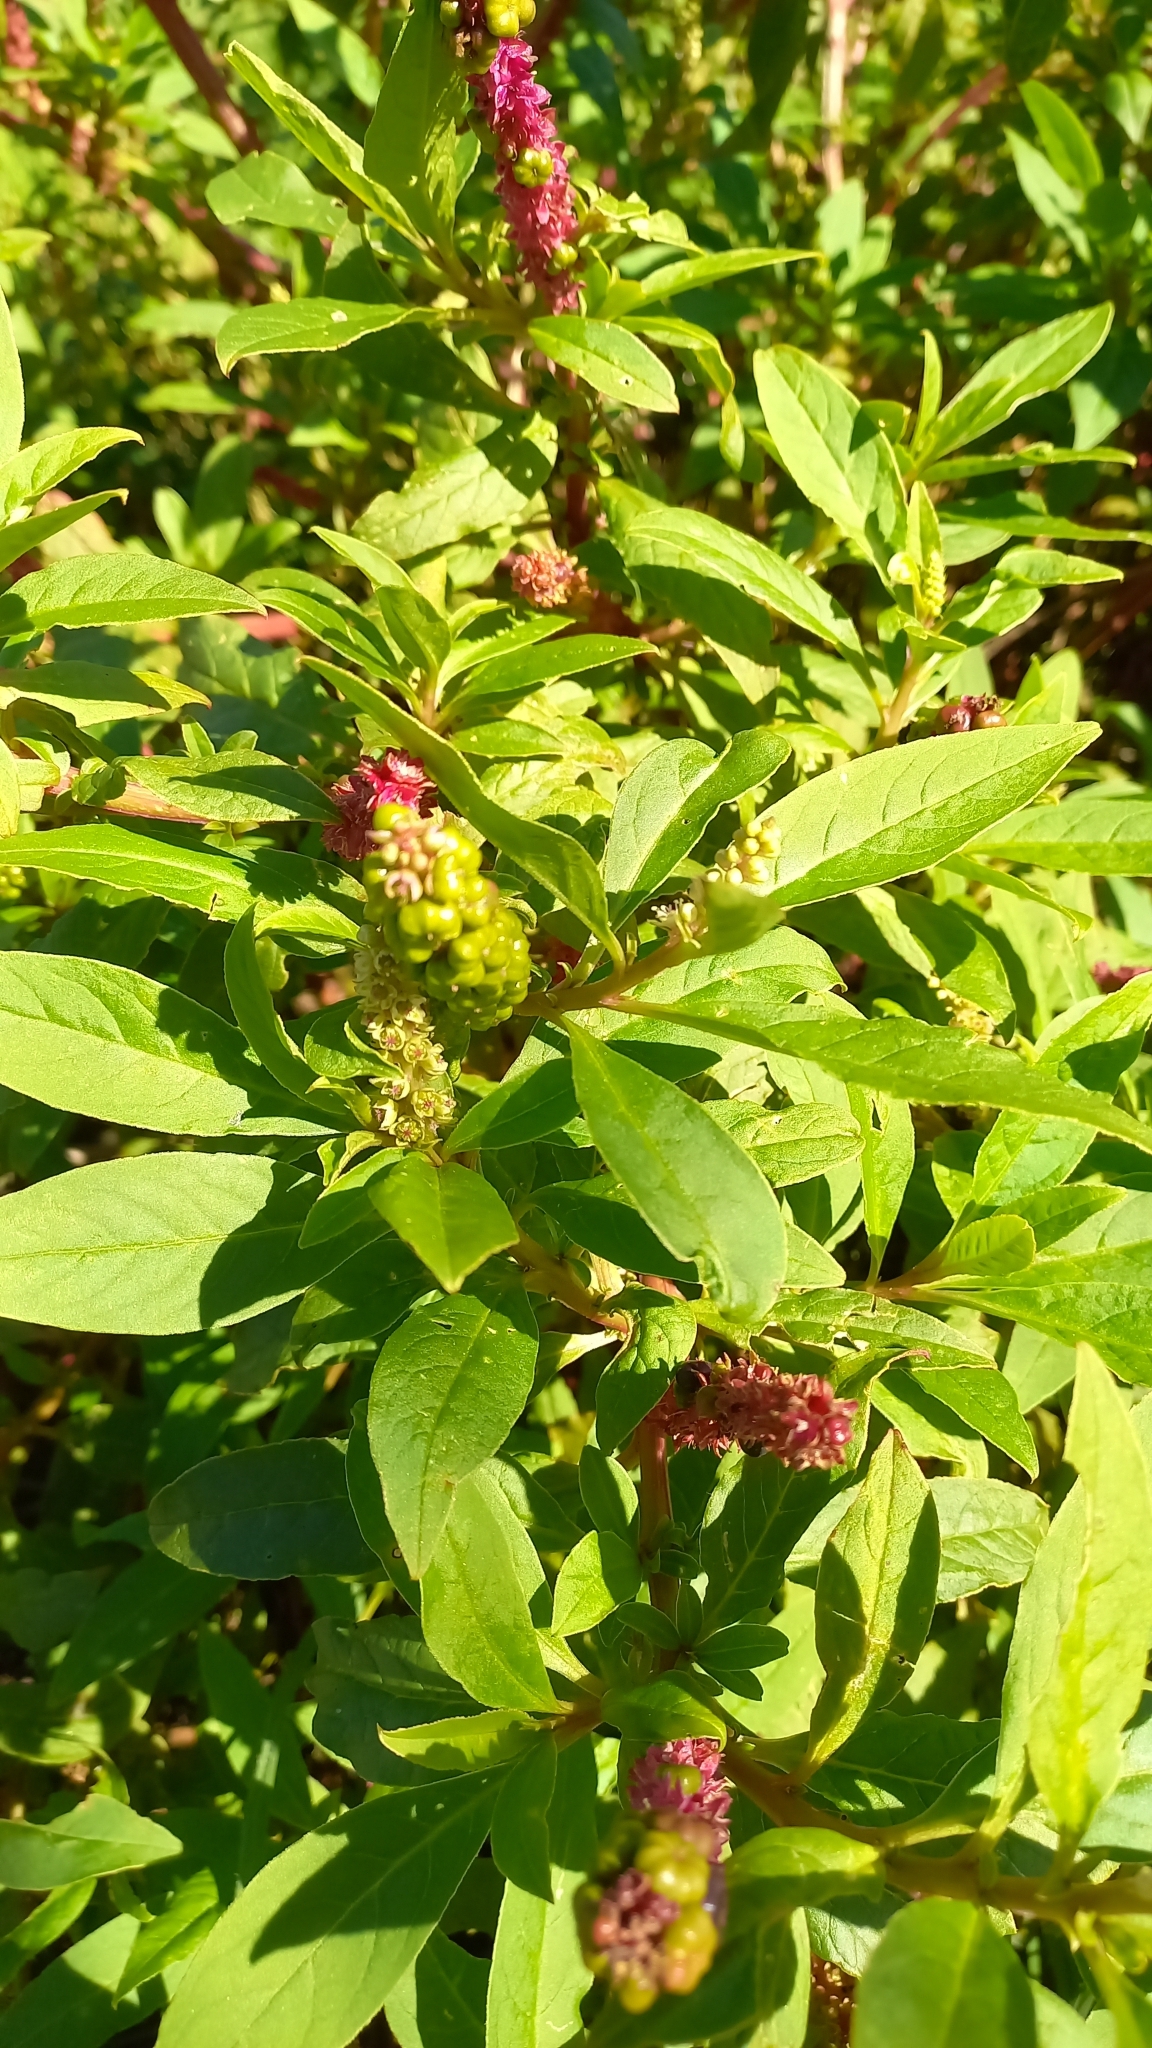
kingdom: Plantae
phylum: Tracheophyta
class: Magnoliopsida
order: Caryophyllales
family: Phytolaccaceae
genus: Phytolacca
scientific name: Phytolacca icosandra
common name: Button pokeweed
